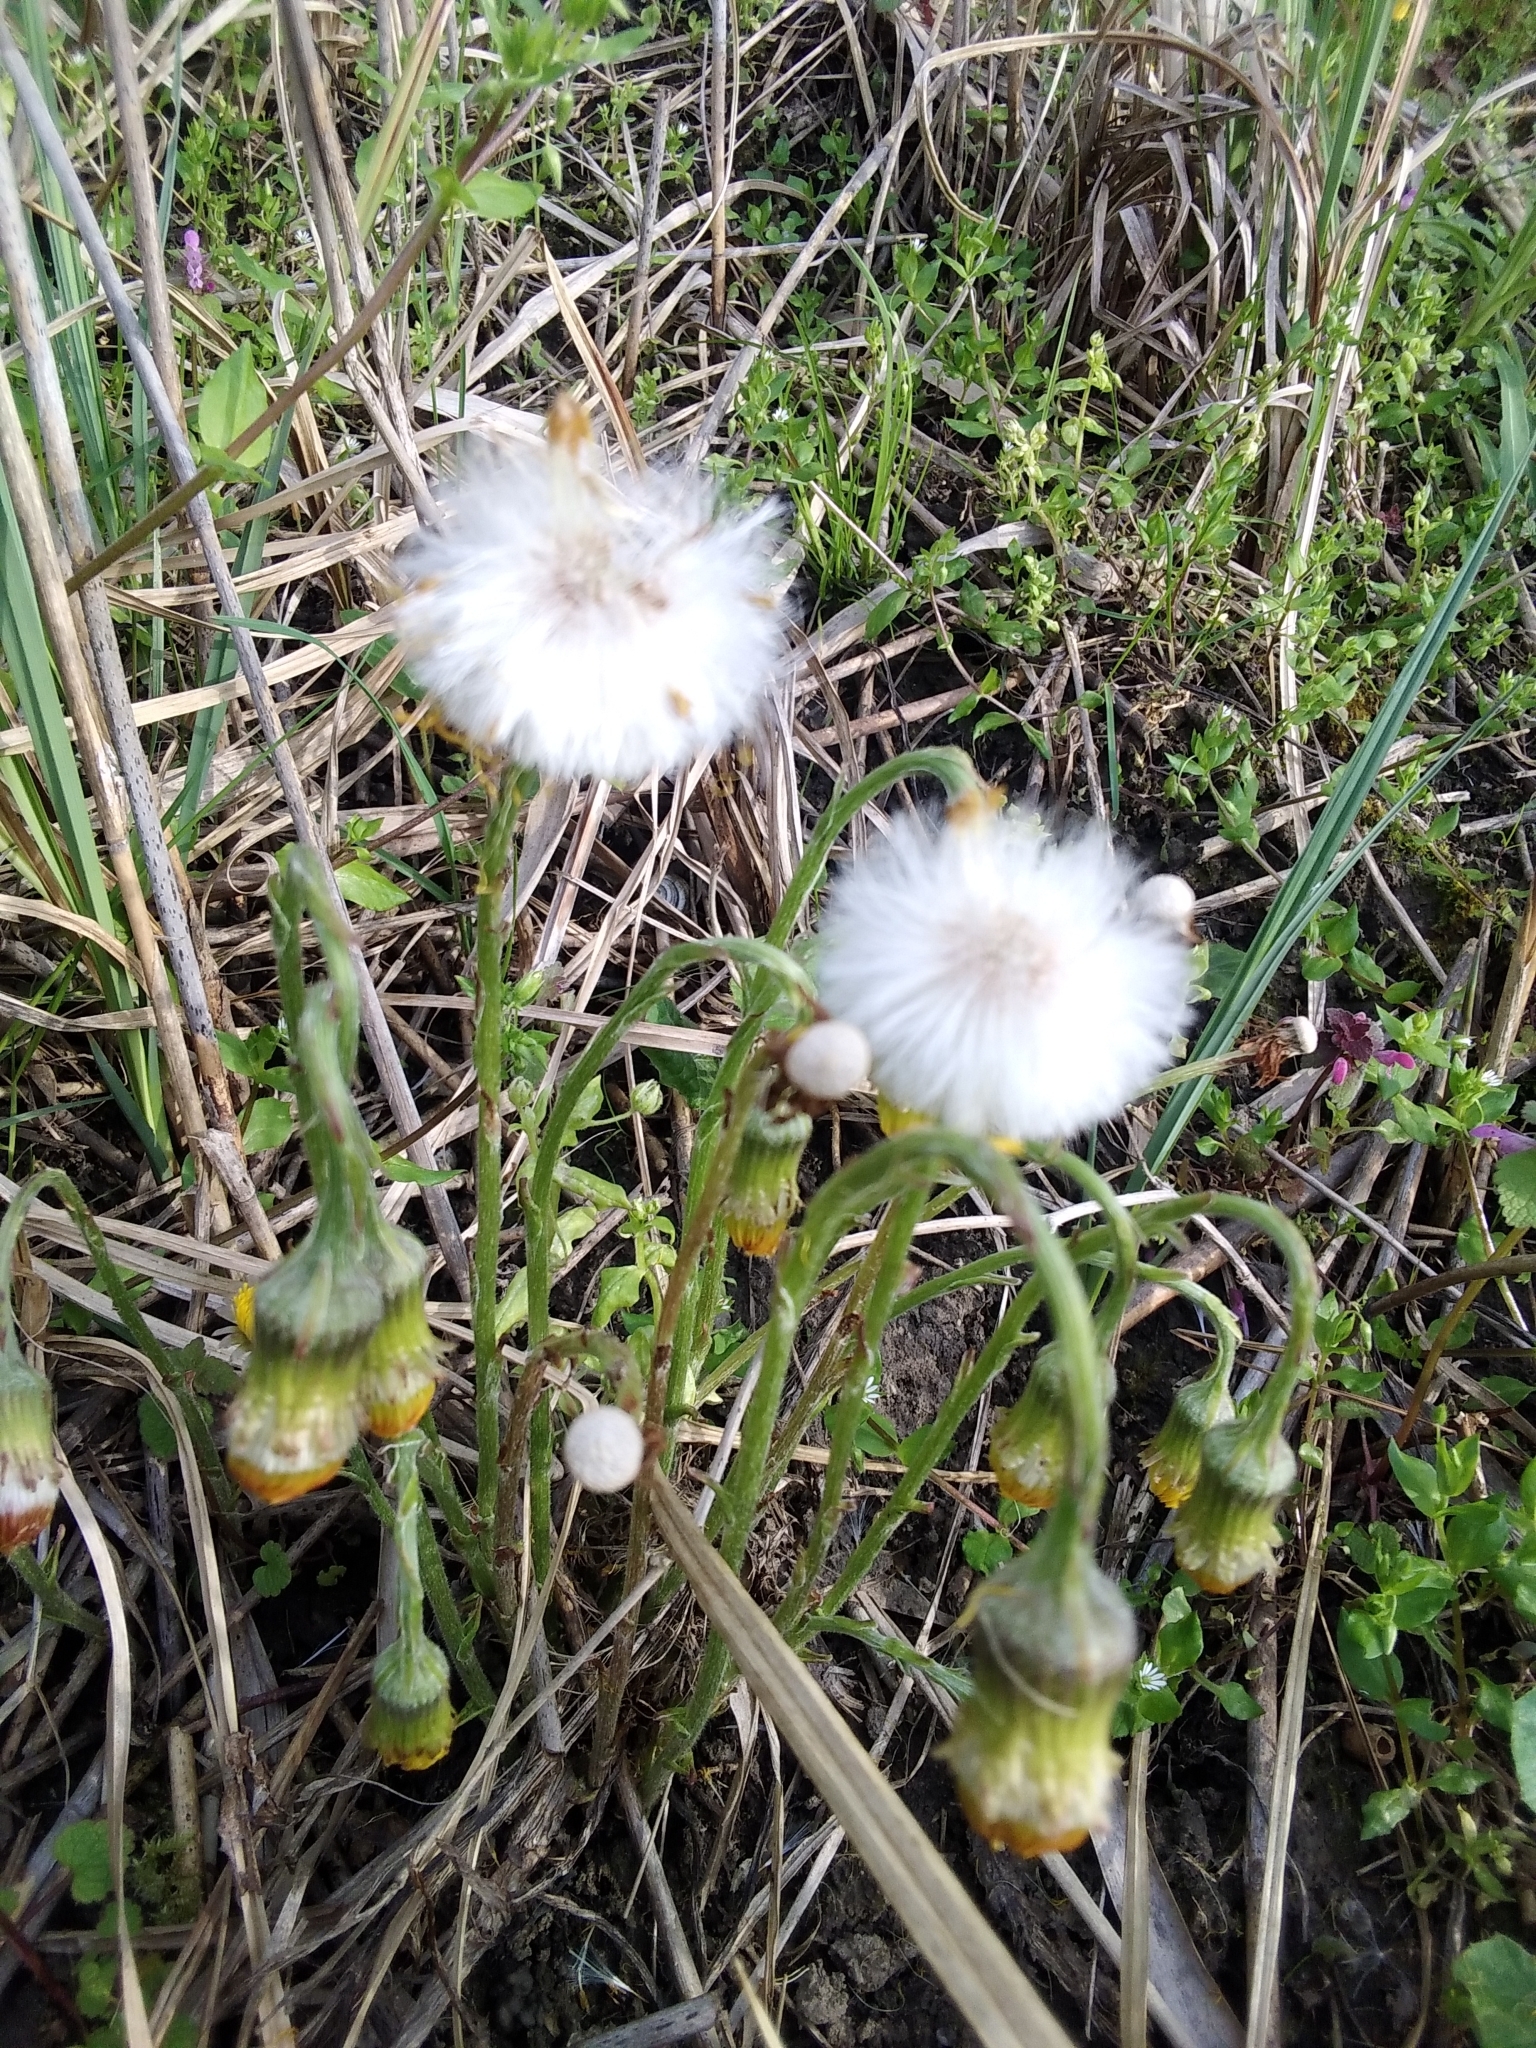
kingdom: Plantae
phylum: Tracheophyta
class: Magnoliopsida
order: Asterales
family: Asteraceae
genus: Tussilago
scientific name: Tussilago farfara
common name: Coltsfoot
